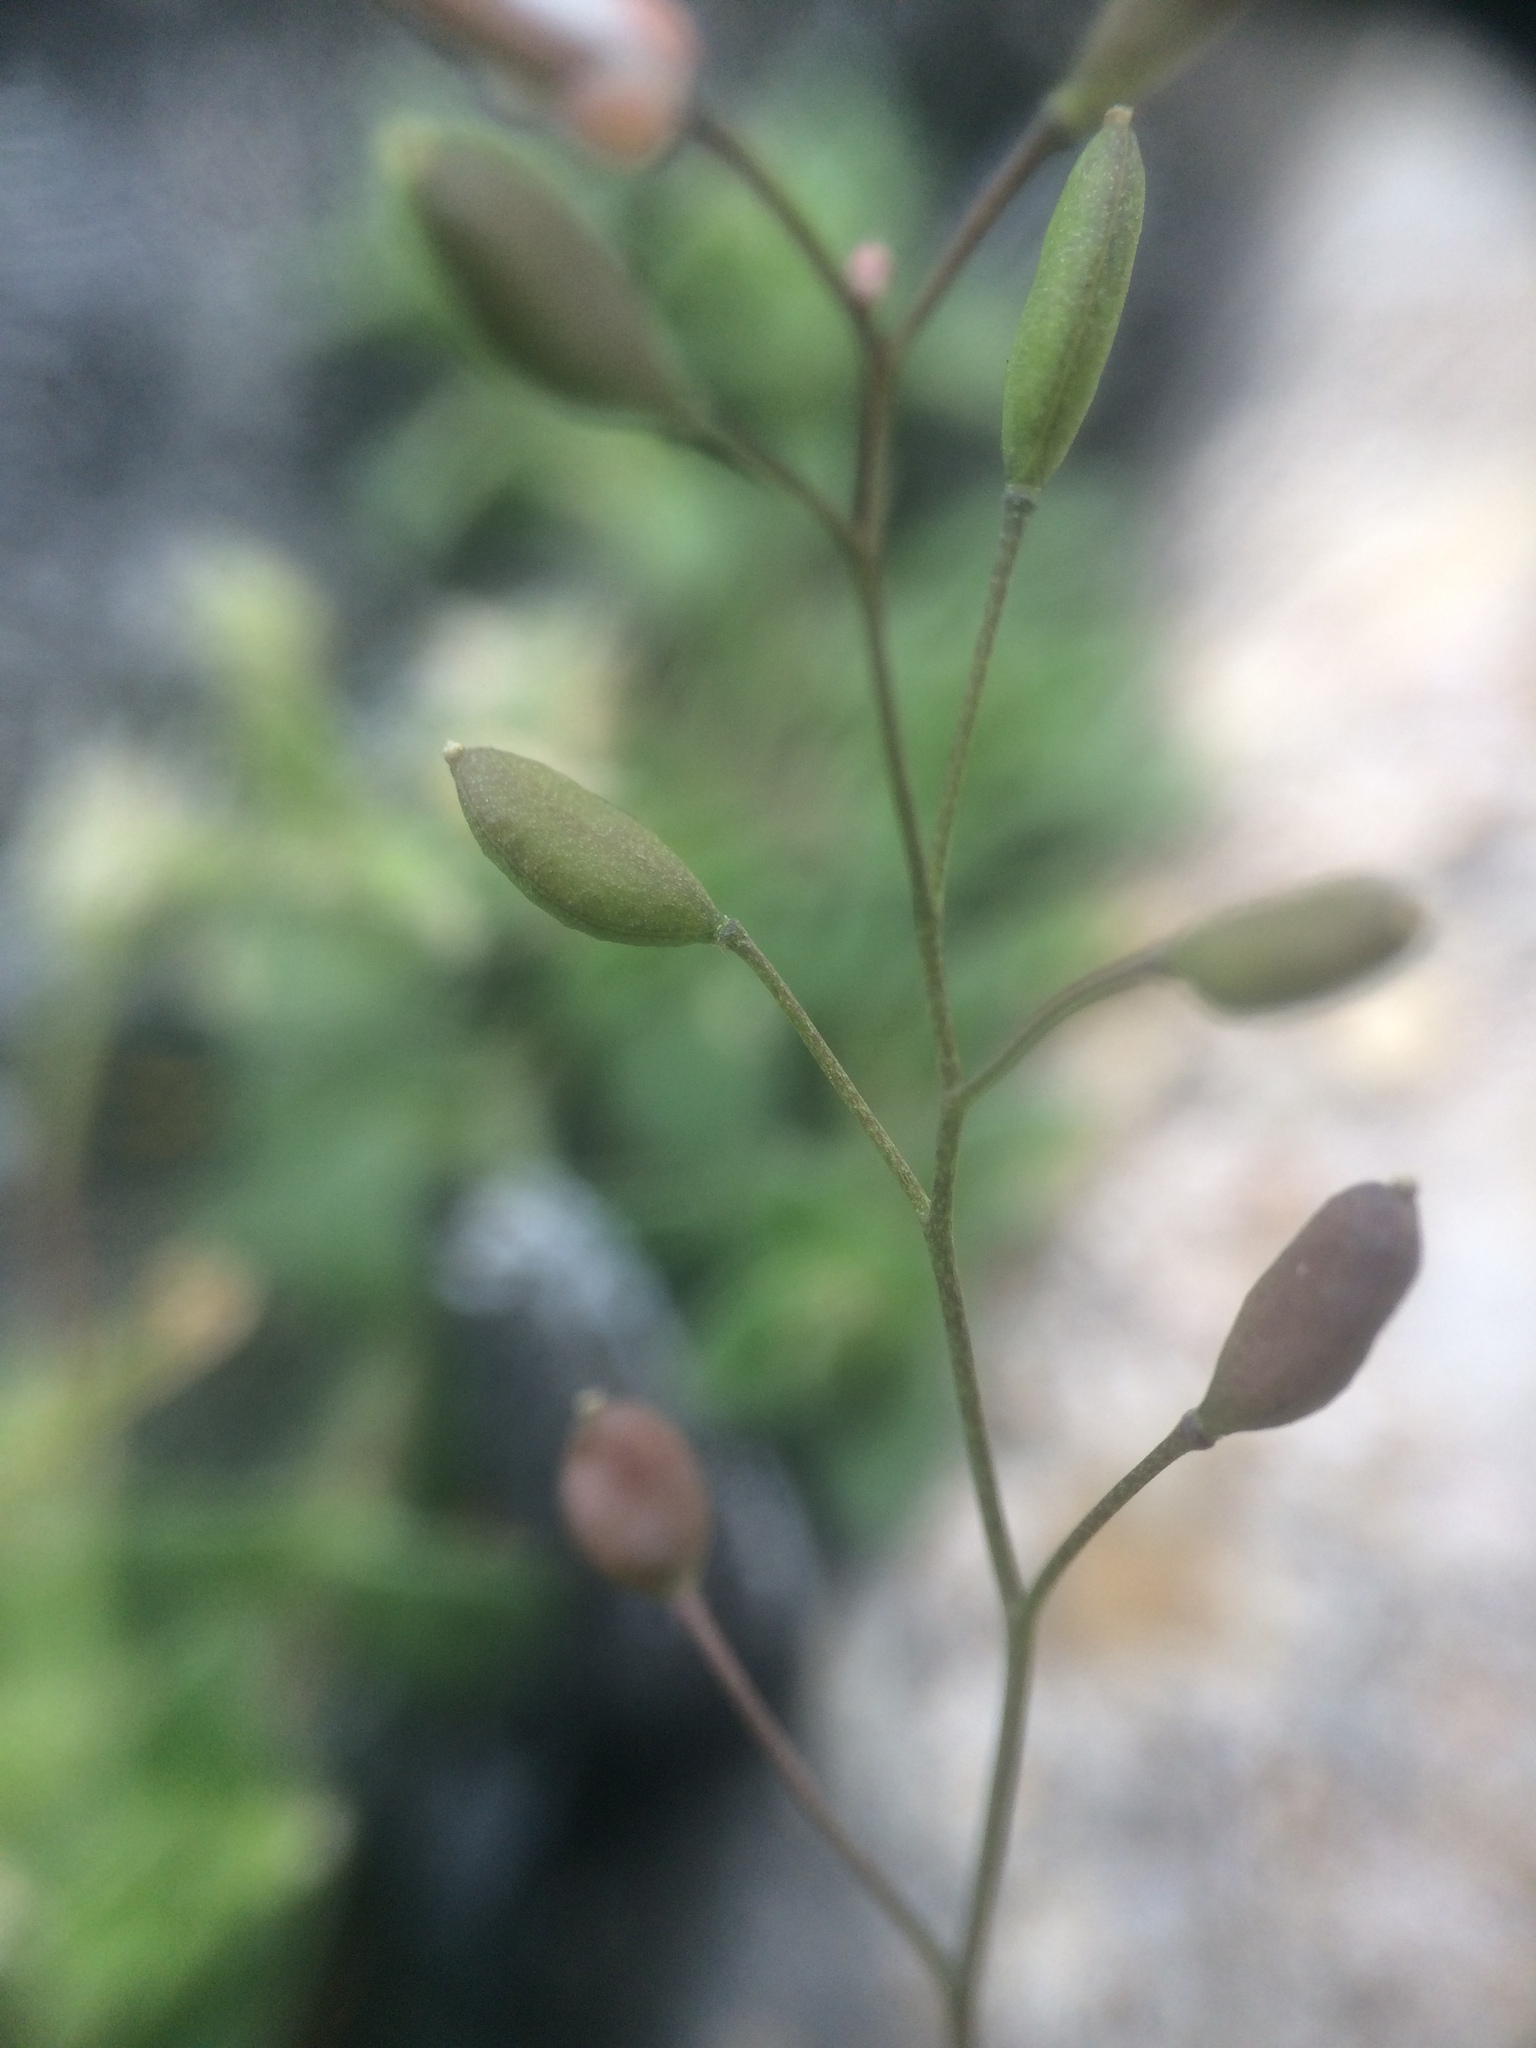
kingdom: Plantae
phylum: Tracheophyta
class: Magnoliopsida
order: Brassicales
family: Brassicaceae
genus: Draba
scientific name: Draba verna
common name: Spring draba
